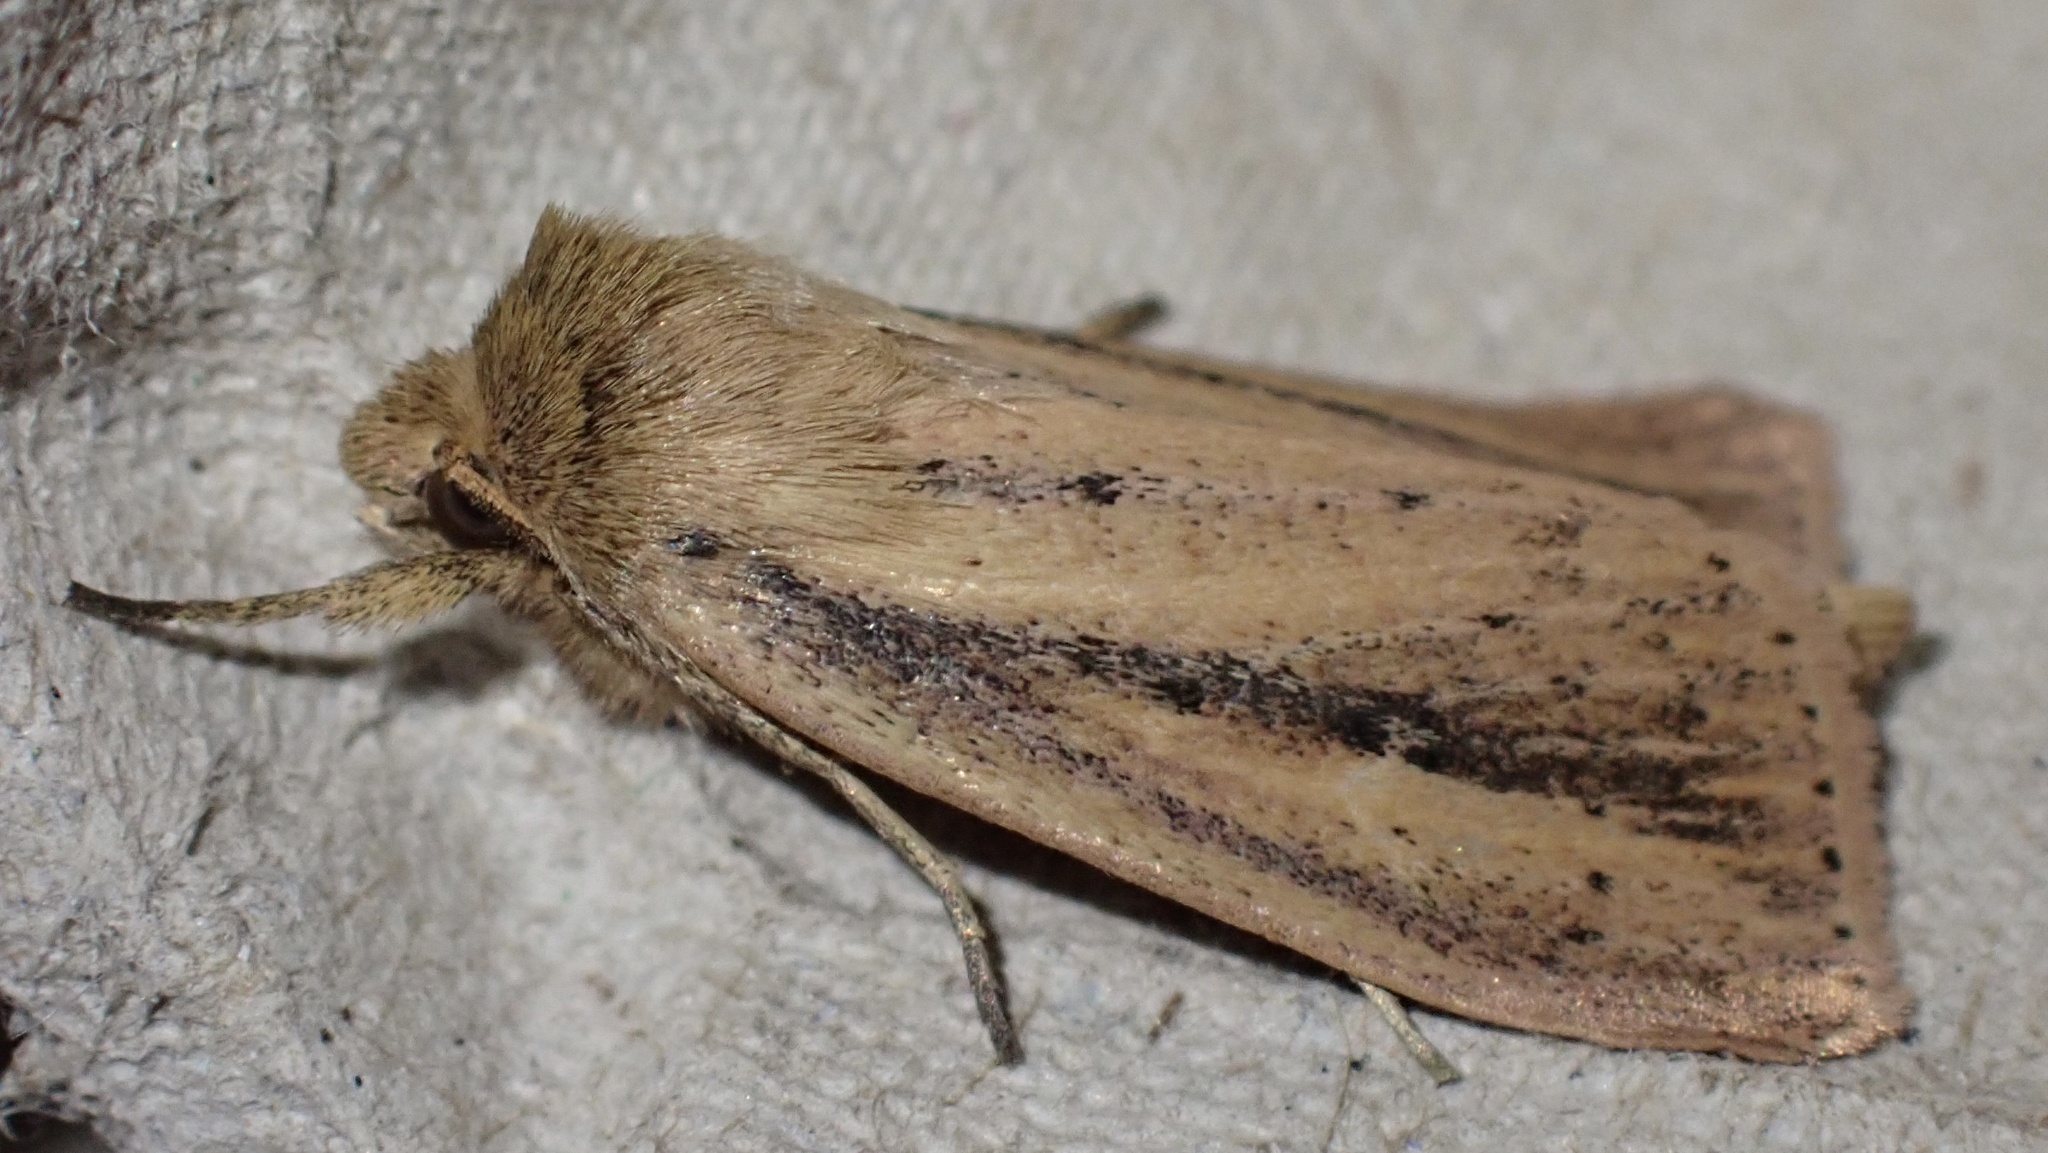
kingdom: Animalia
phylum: Arthropoda
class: Insecta
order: Lepidoptera
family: Noctuidae
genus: Globia
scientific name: Globia sparganii
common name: Webb's wainscot
